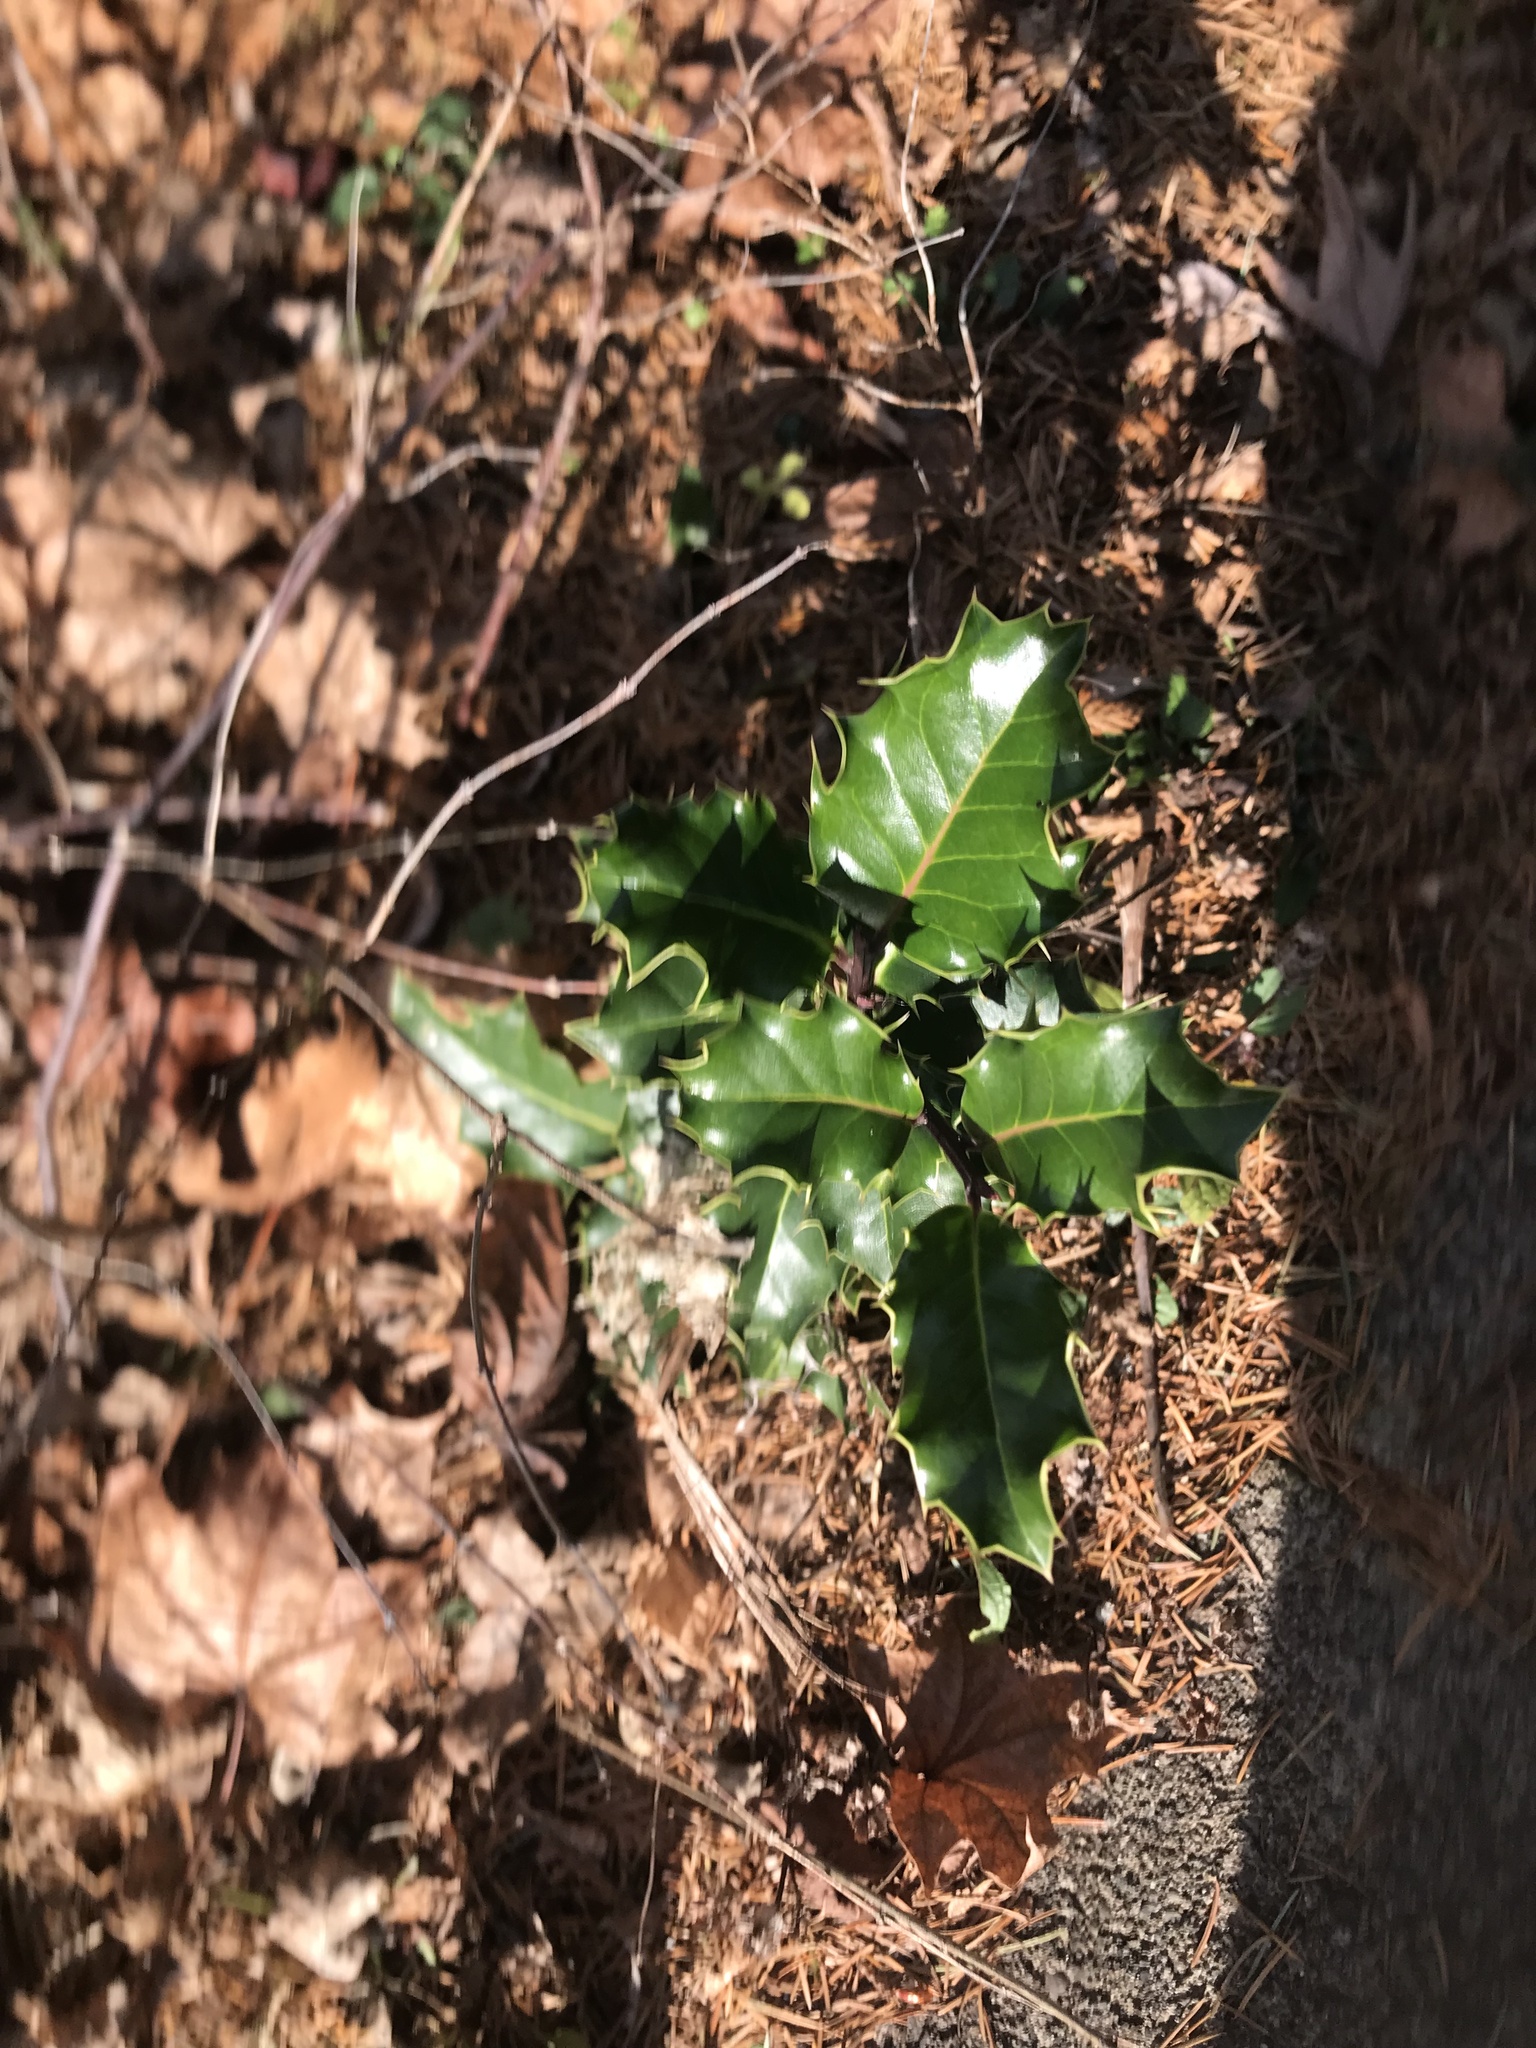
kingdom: Plantae
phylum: Tracheophyta
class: Magnoliopsida
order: Aquifoliales
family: Aquifoliaceae
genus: Ilex
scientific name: Ilex aquifolium
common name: English holly
